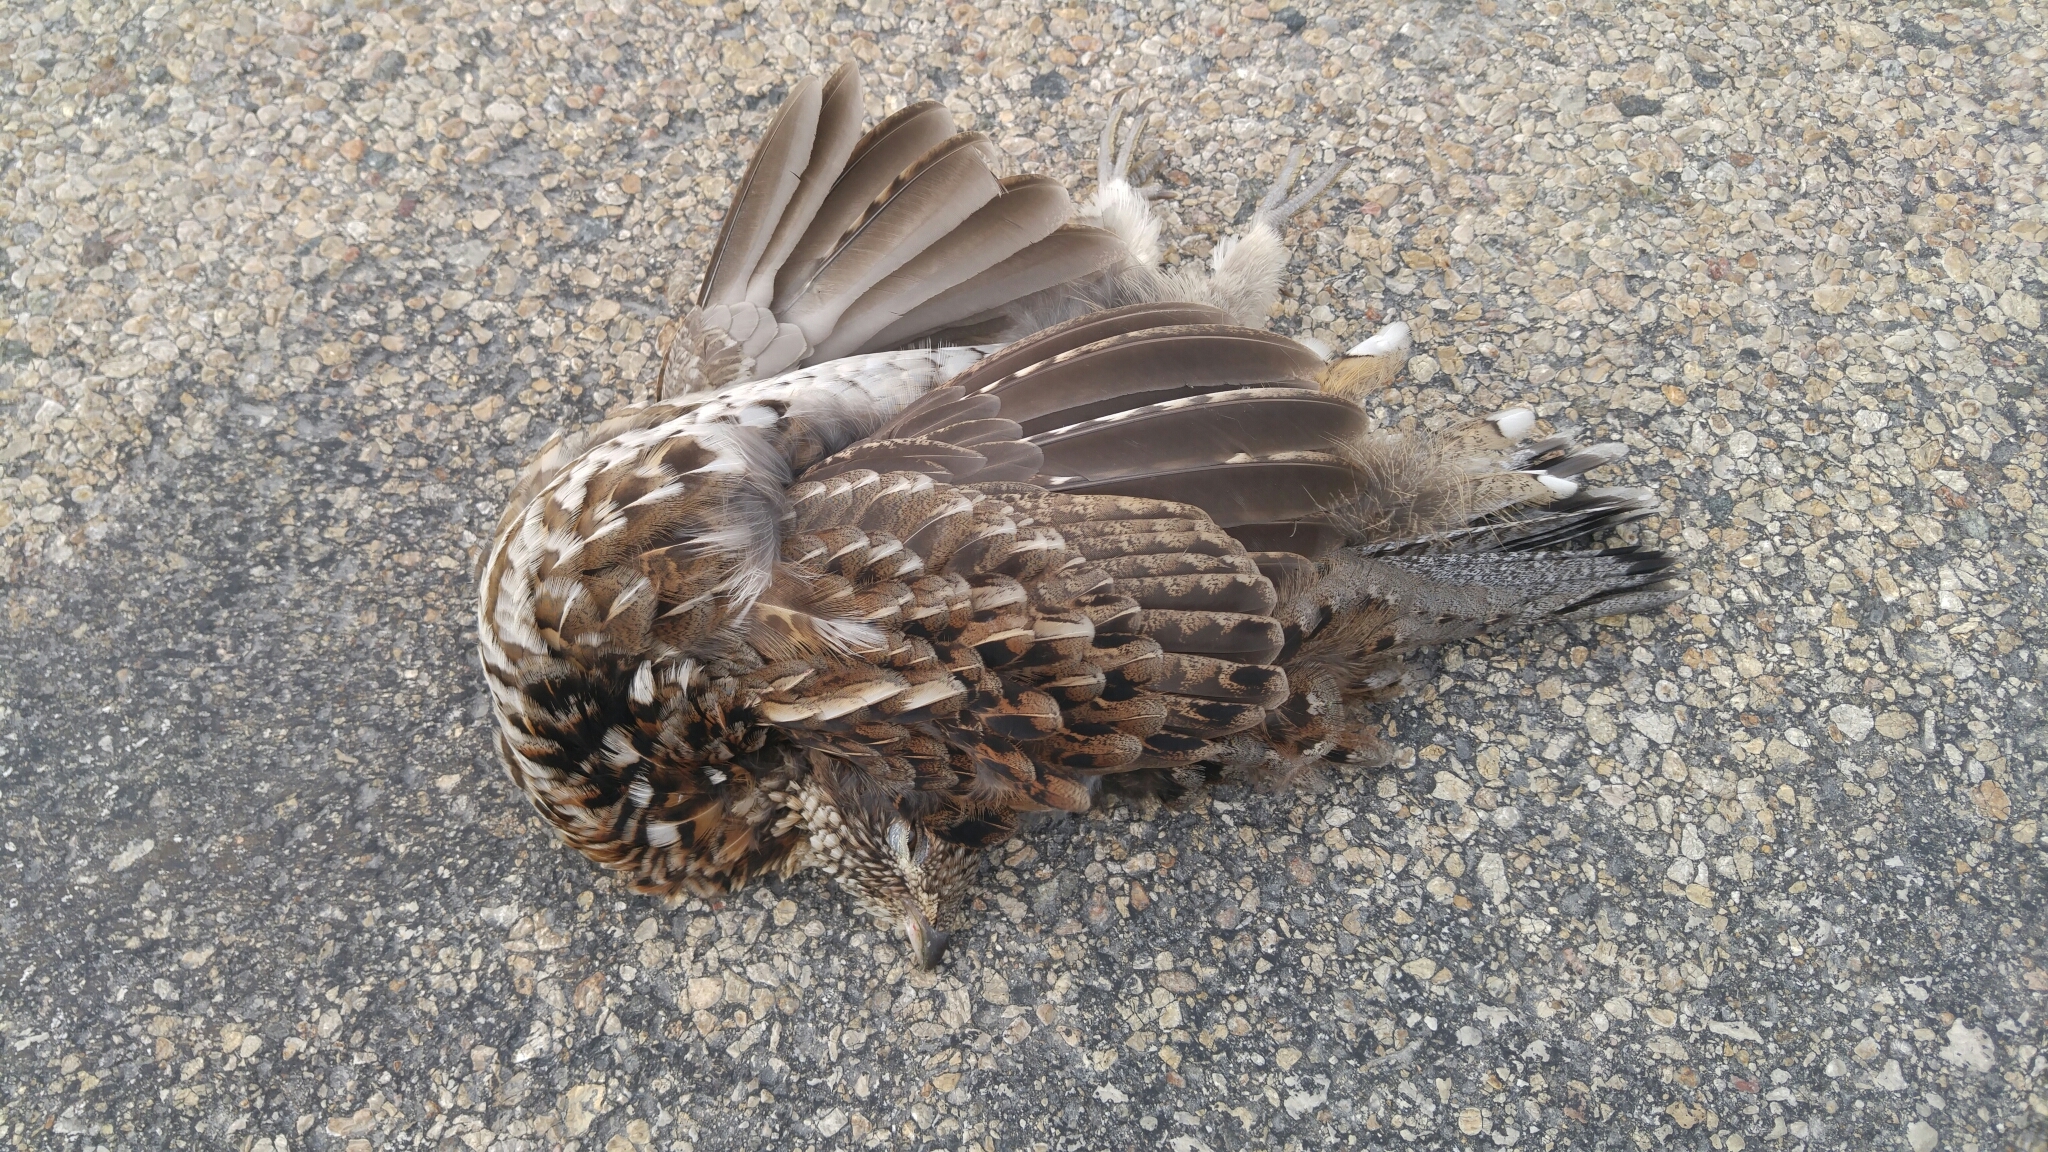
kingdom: Animalia
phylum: Chordata
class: Aves
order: Galliformes
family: Phasianidae
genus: Bonasa
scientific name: Bonasa umbellus
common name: Ruffed grouse
